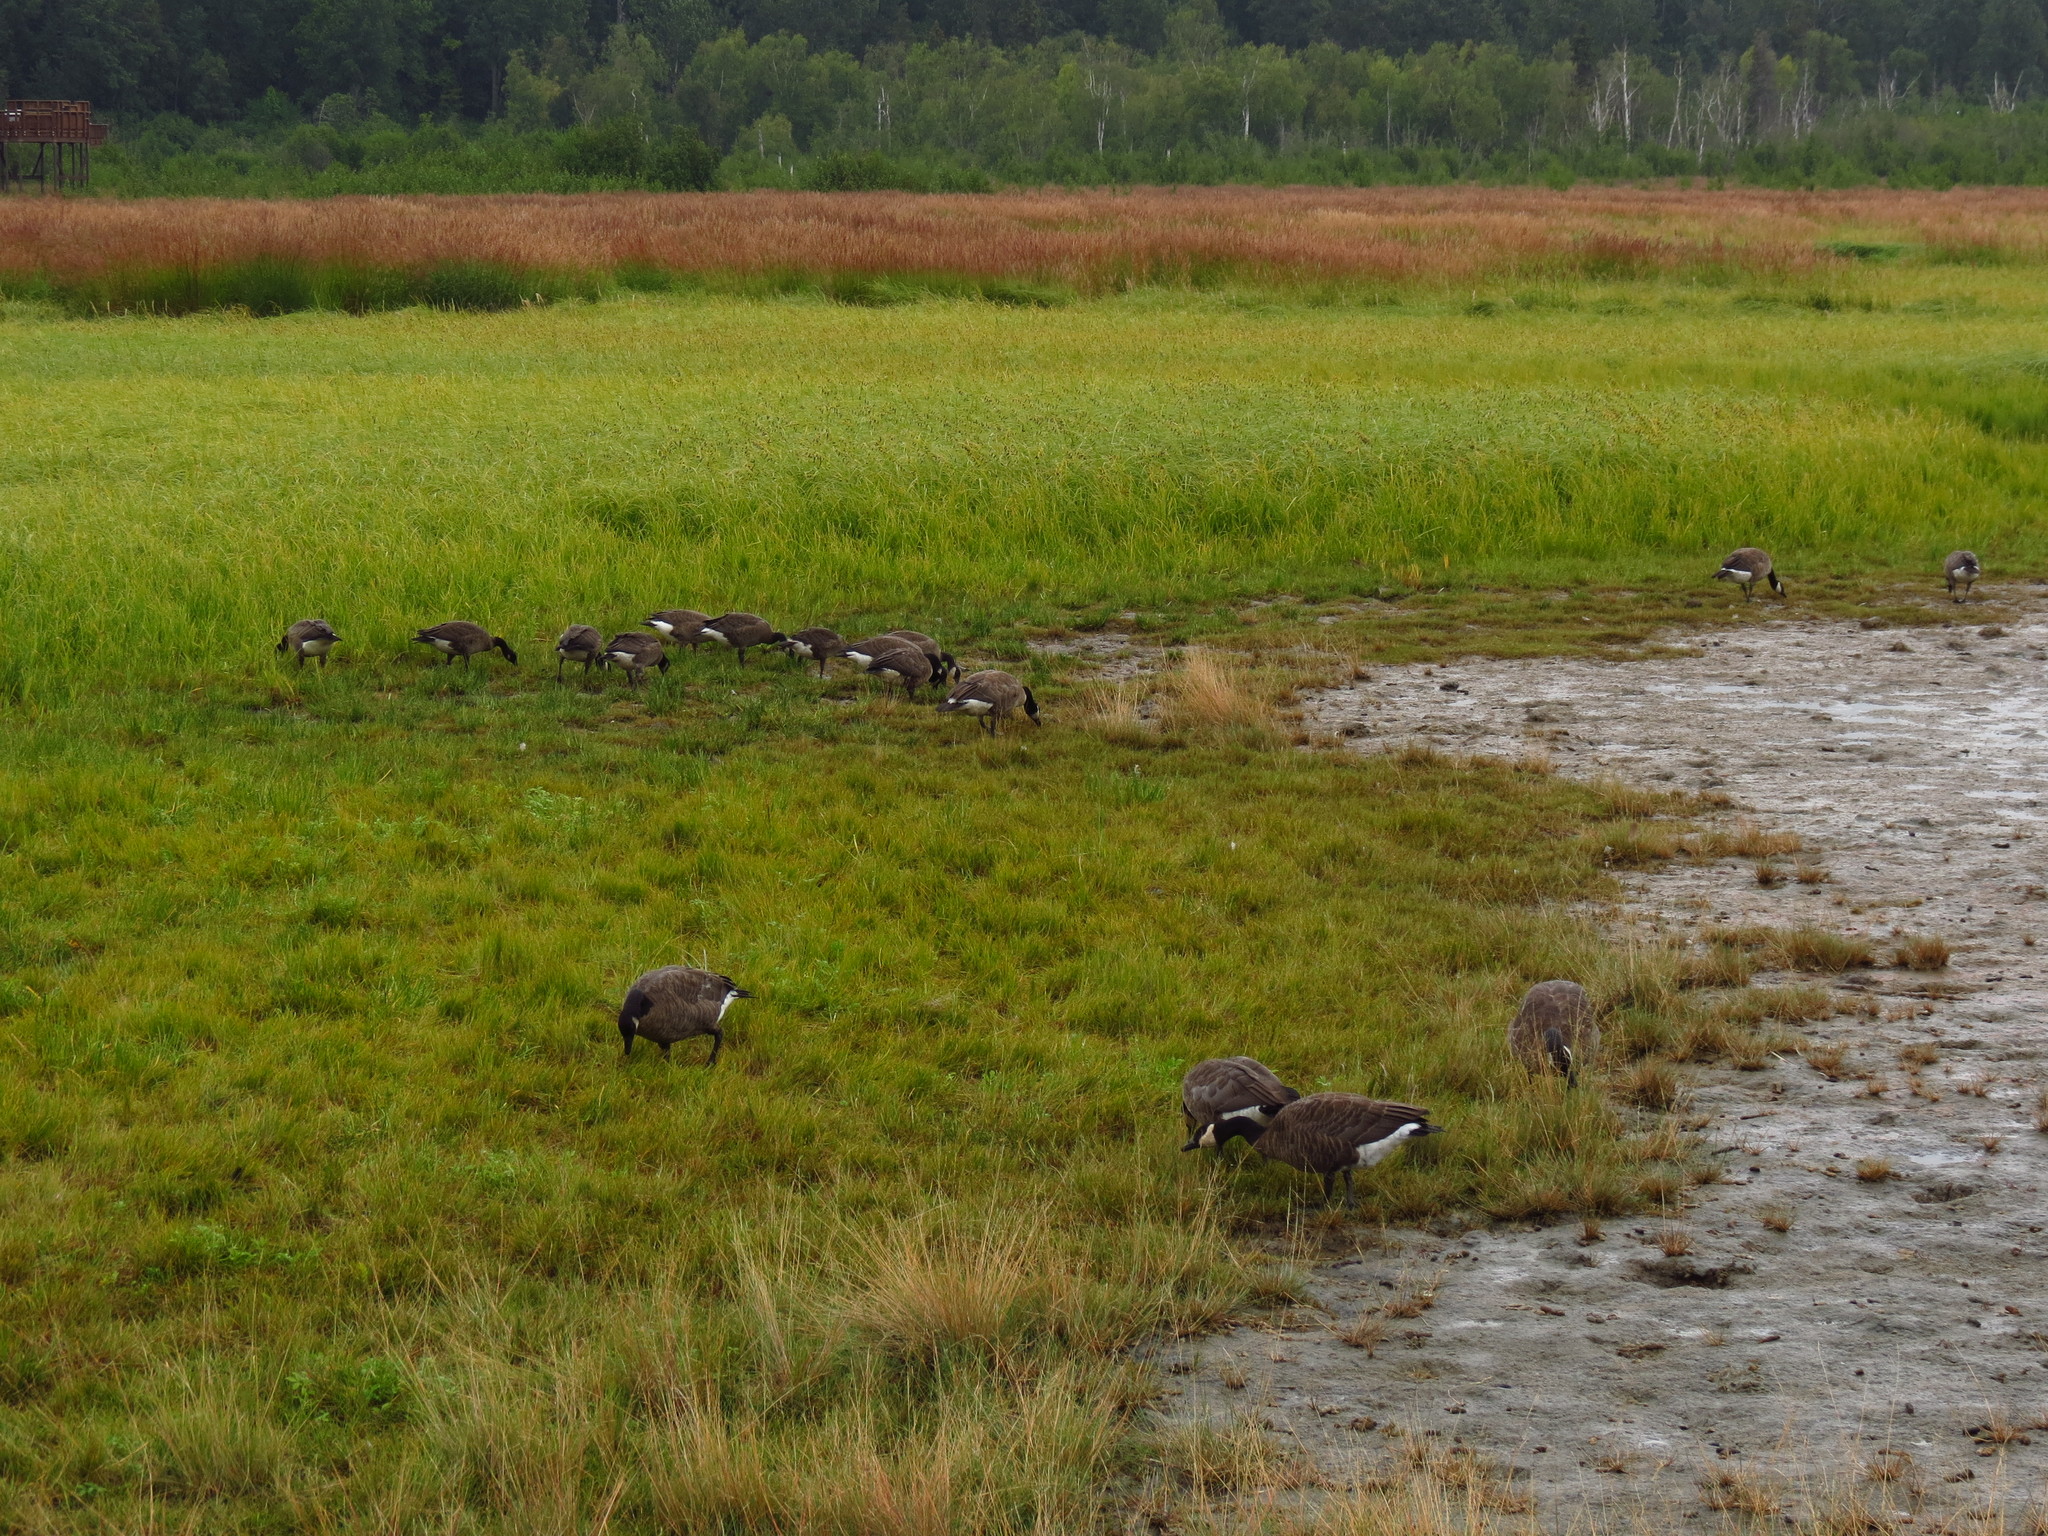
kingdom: Animalia
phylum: Chordata
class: Aves
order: Anseriformes
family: Anatidae
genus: Branta
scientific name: Branta canadensis
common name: Canada goose
